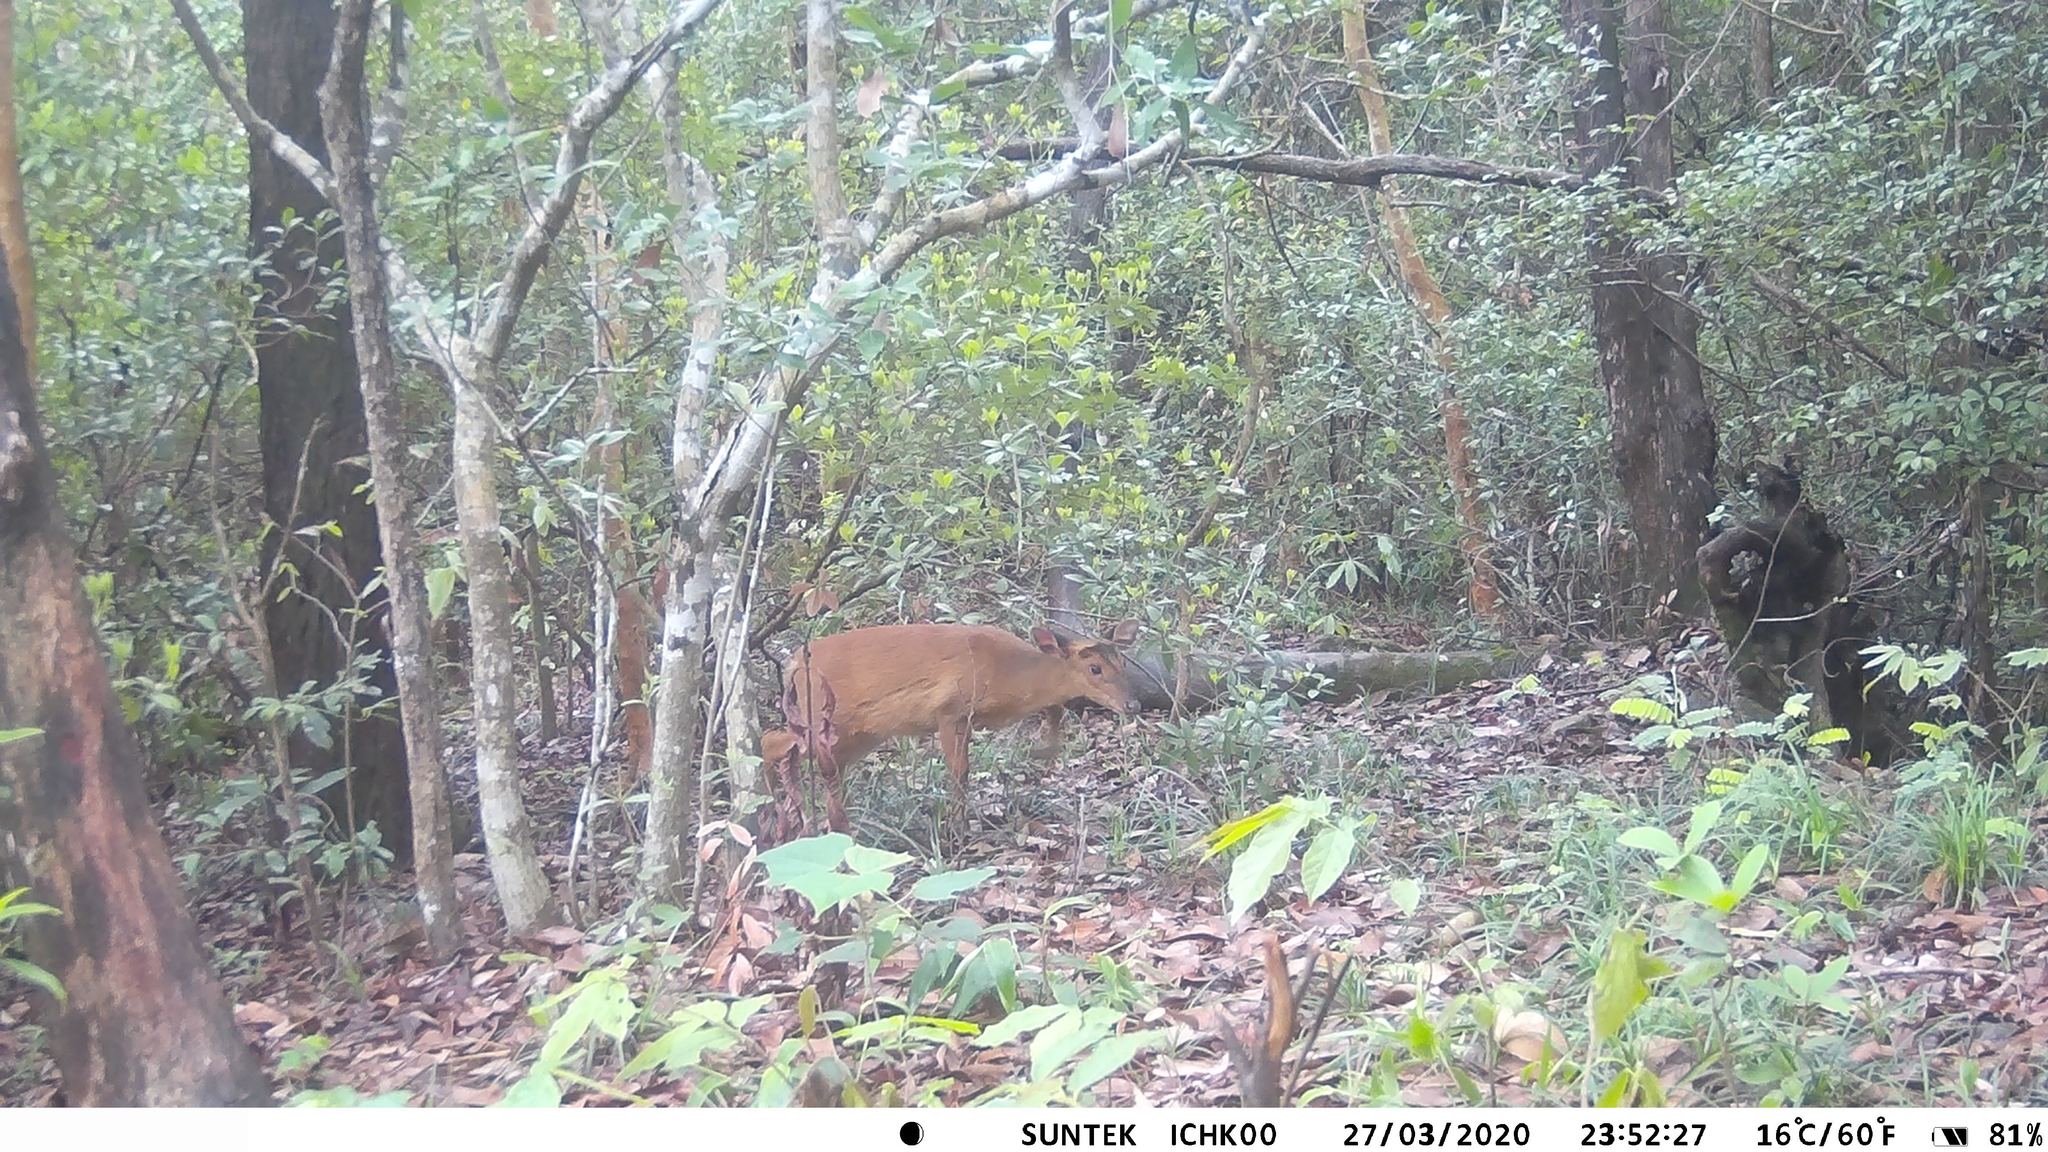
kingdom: Animalia
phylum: Chordata
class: Mammalia
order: Artiodactyla
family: Cervidae
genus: Muntiacus
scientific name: Muntiacus muntjak
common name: Indian muntjac
